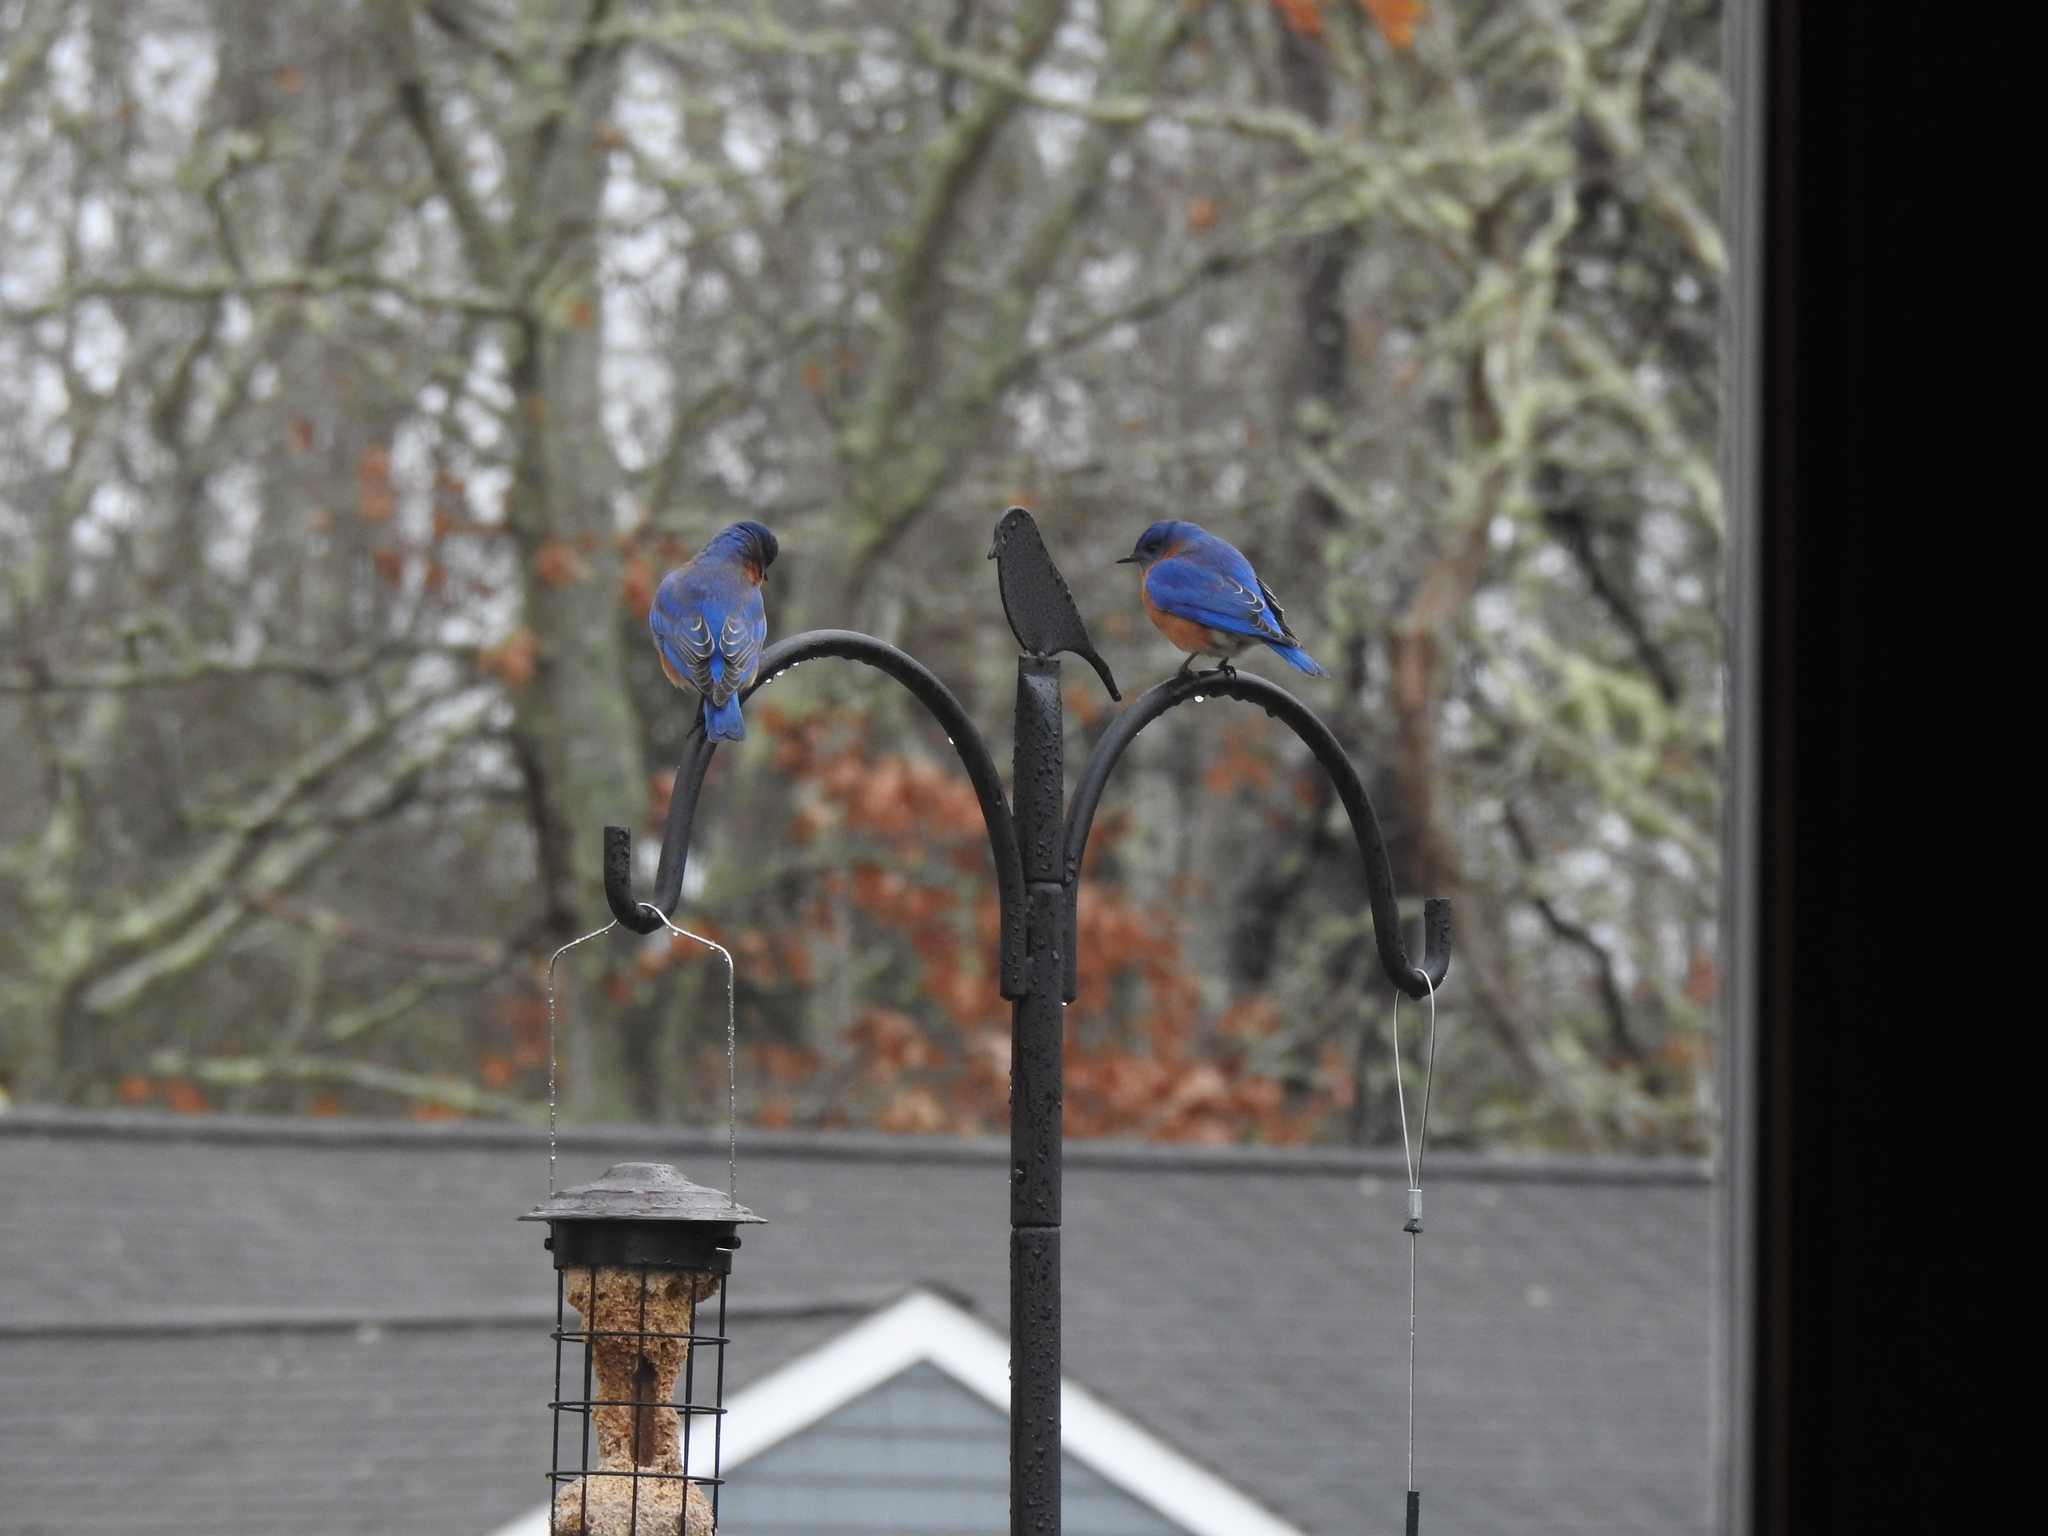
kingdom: Animalia
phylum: Chordata
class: Aves
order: Passeriformes
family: Turdidae
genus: Sialia
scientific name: Sialia sialis
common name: Eastern bluebird
